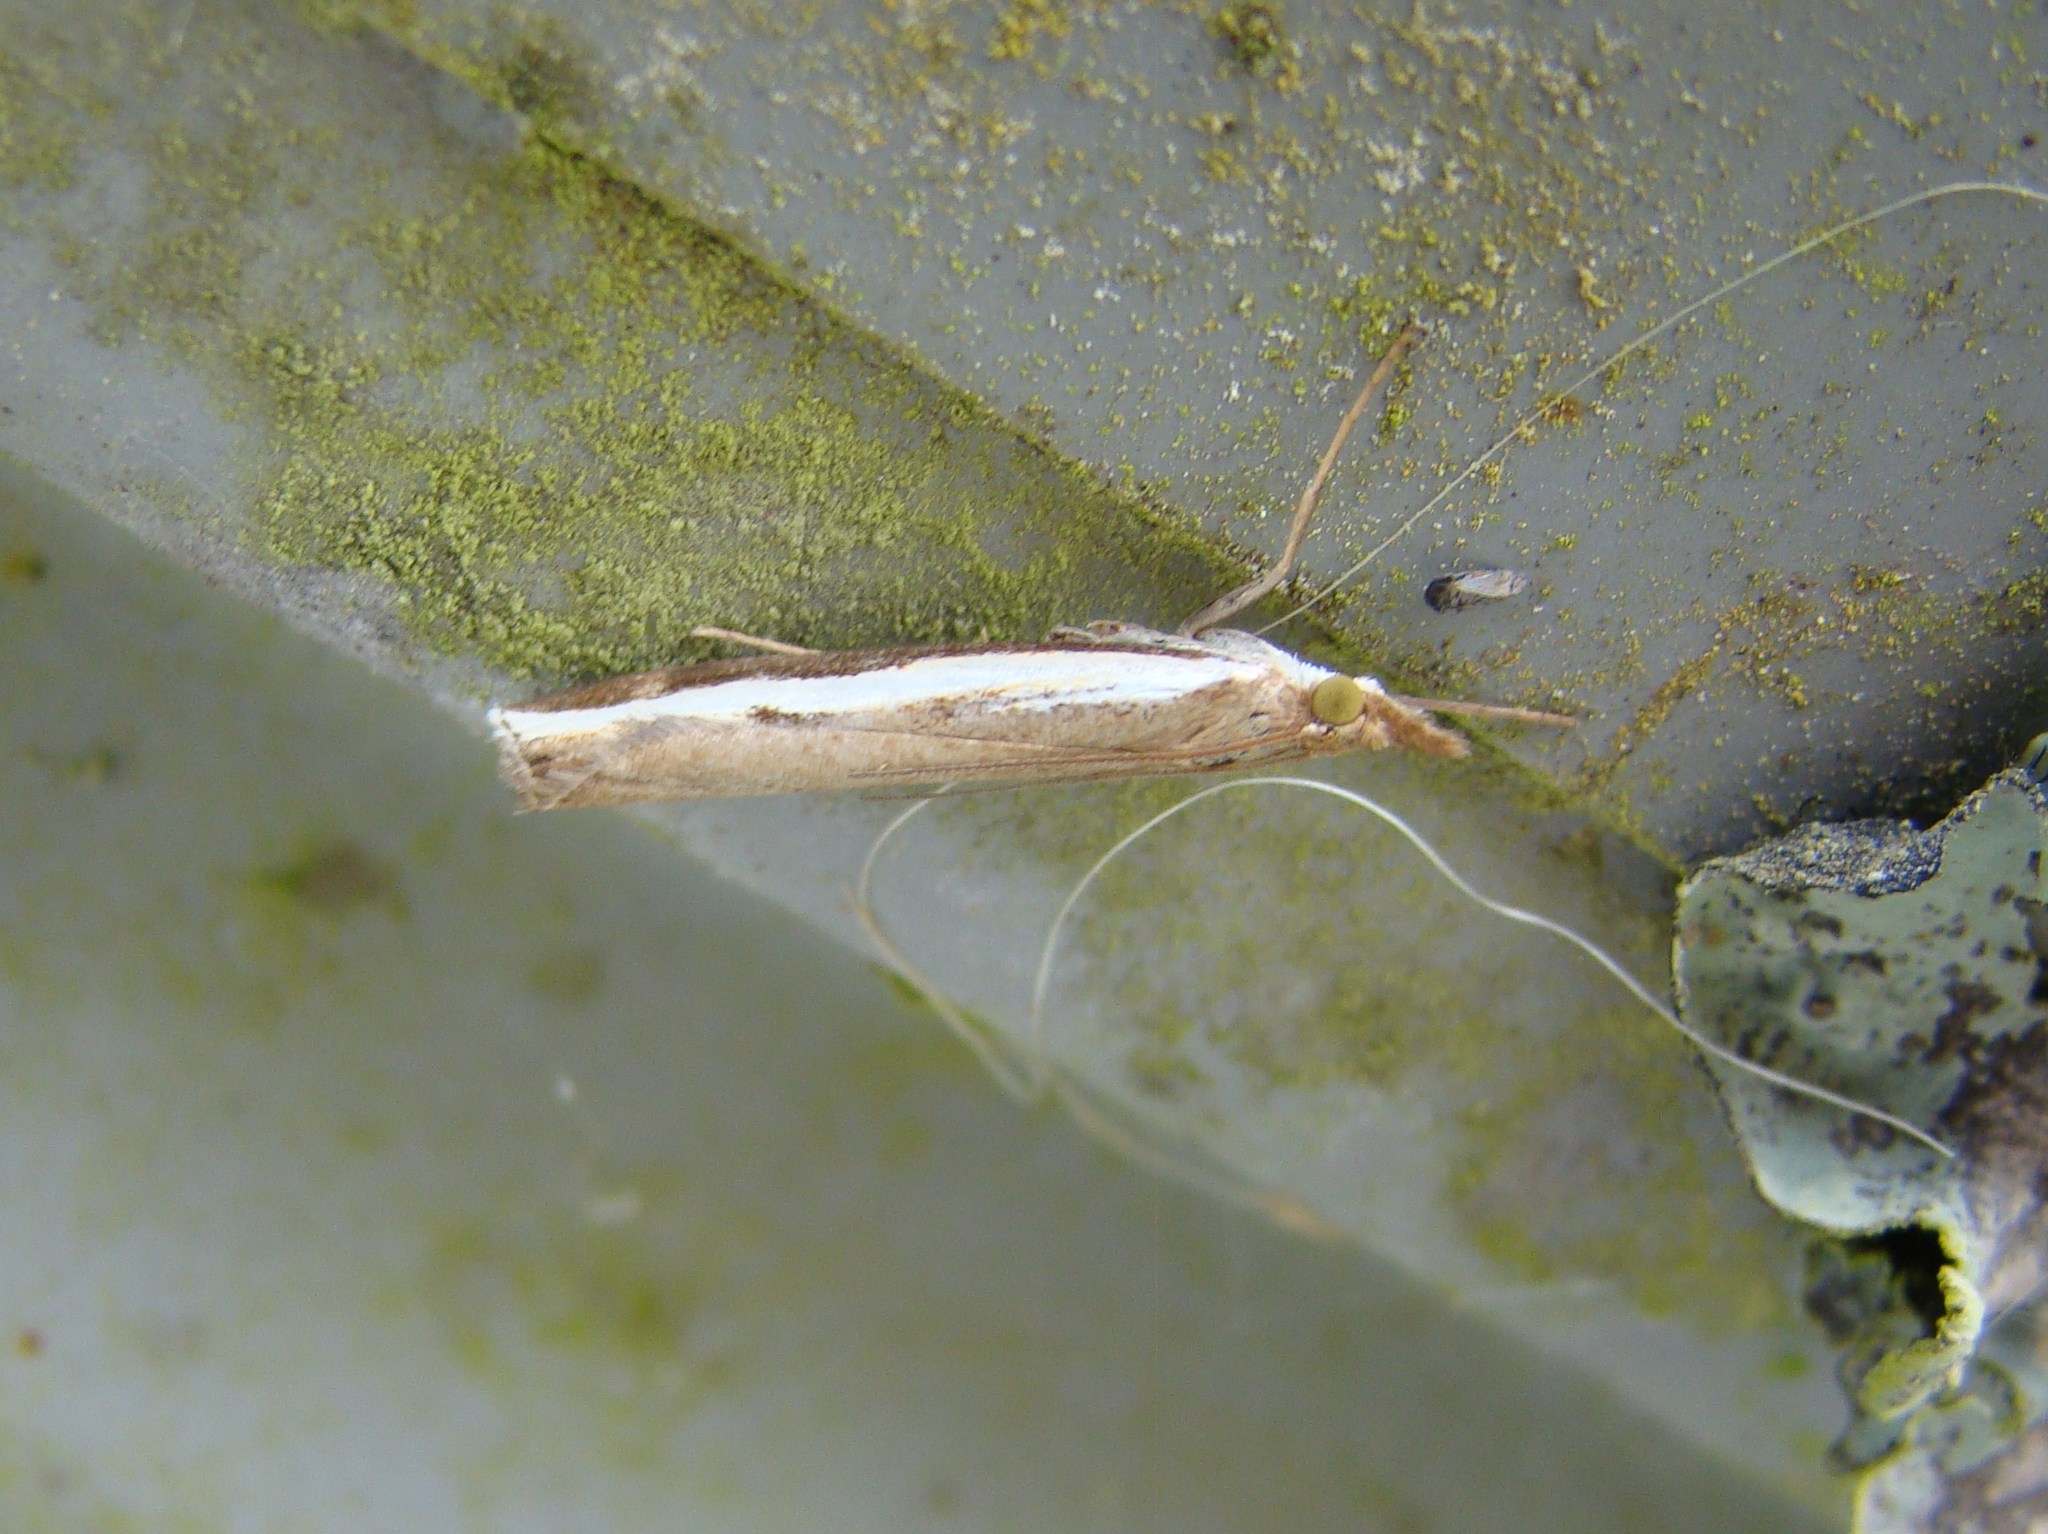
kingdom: Animalia
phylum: Arthropoda
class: Insecta
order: Lepidoptera
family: Crambidae
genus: Orocrambus
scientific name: Orocrambus flexuosellus
